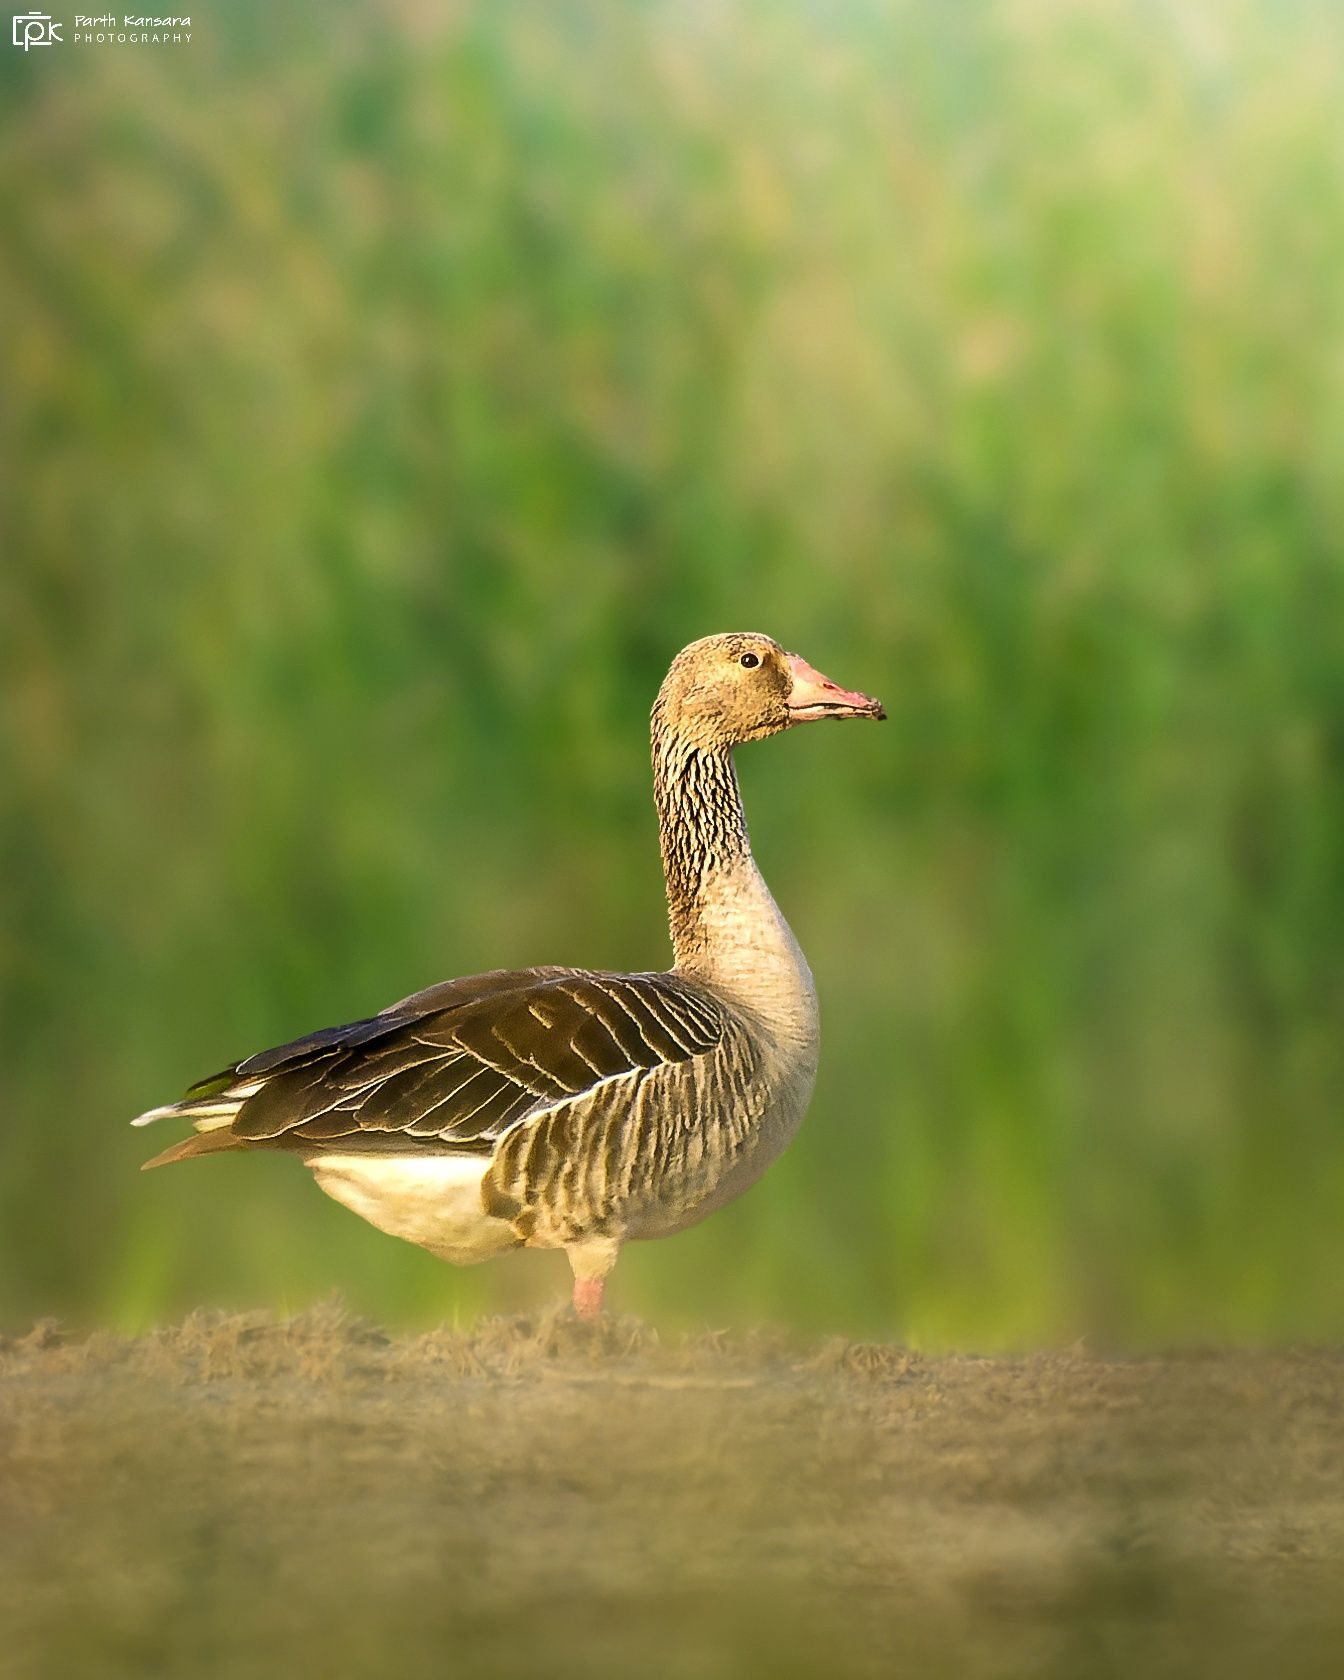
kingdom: Animalia
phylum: Chordata
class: Aves
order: Anseriformes
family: Anatidae
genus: Anser
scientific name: Anser anser
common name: Greylag goose
